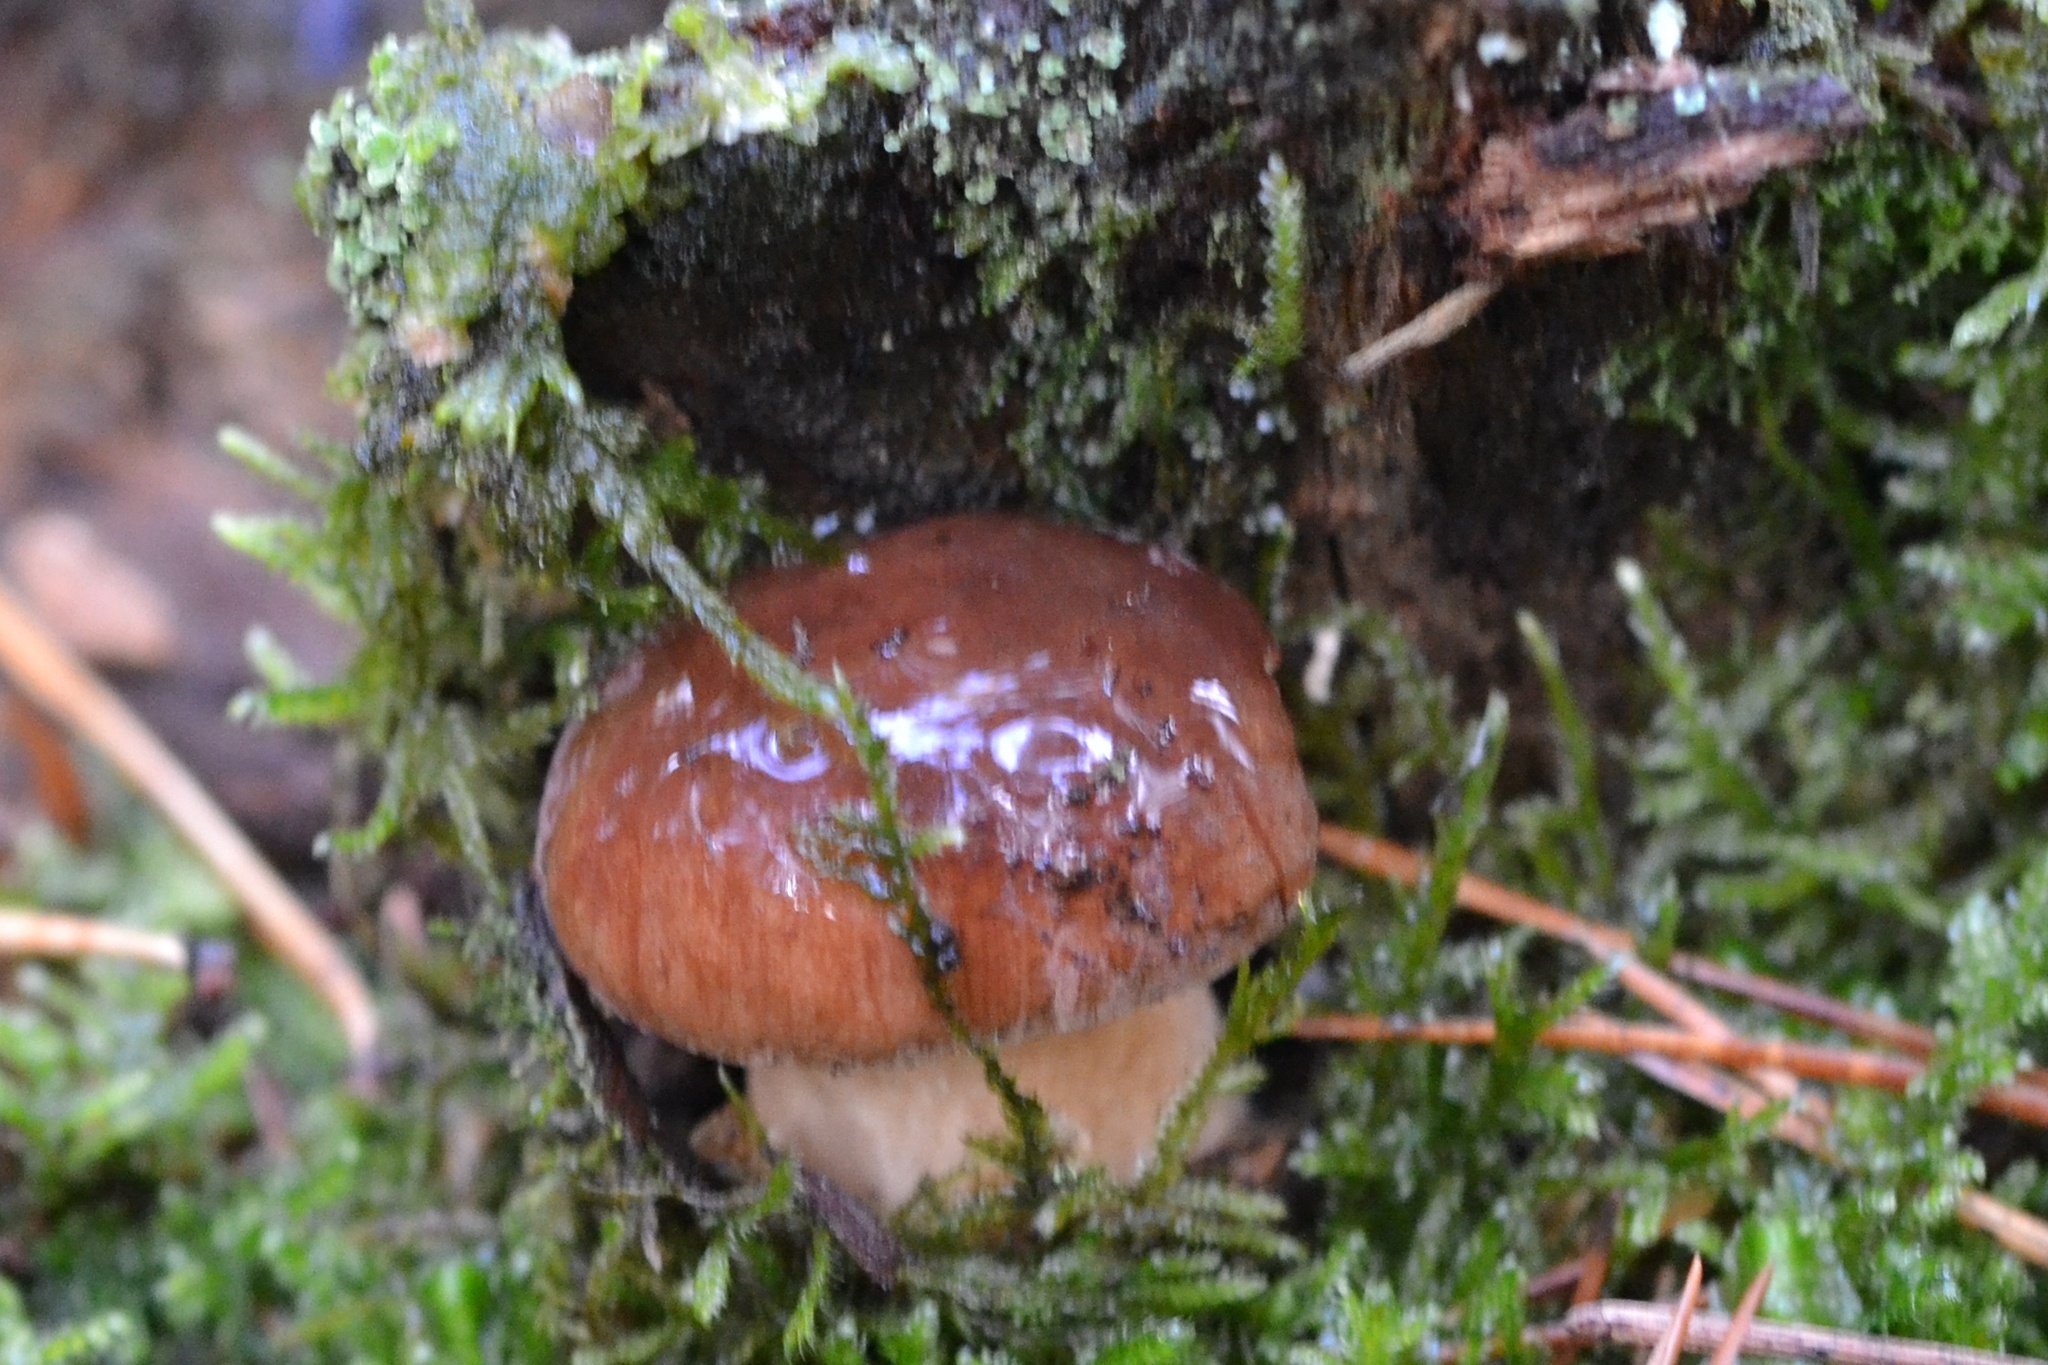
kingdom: Fungi
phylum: Basidiomycota
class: Agaricomycetes
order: Boletales
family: Boletaceae
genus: Imleria
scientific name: Imleria badia
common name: Bay bolete
